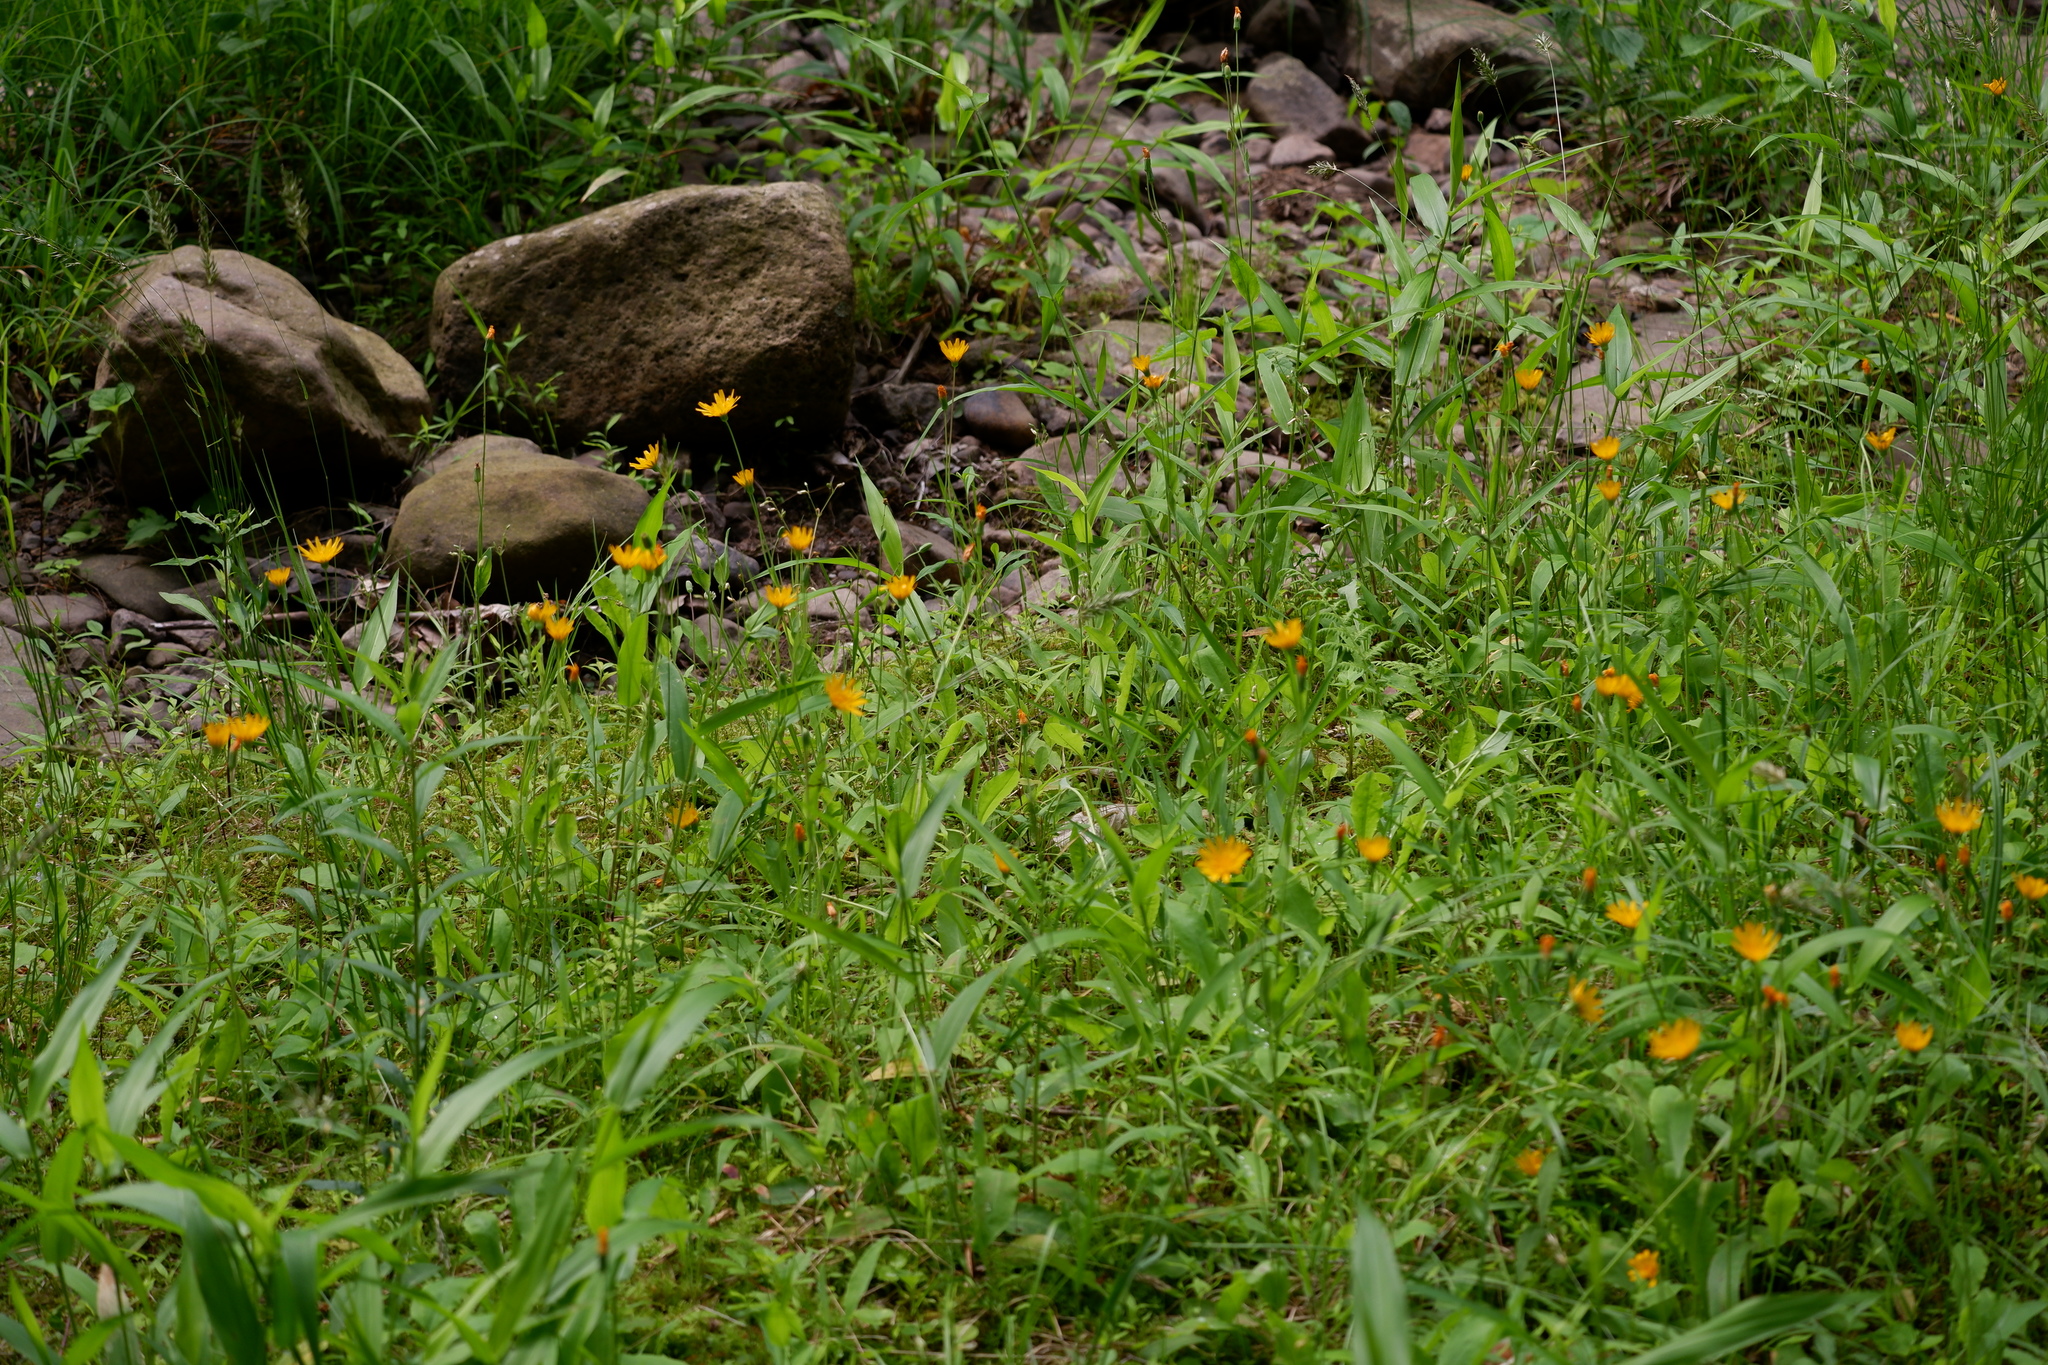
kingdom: Plantae
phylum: Tracheophyta
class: Magnoliopsida
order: Asterales
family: Asteraceae
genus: Krigia
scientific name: Krigia biflora
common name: Orange dwarf-dandelion
